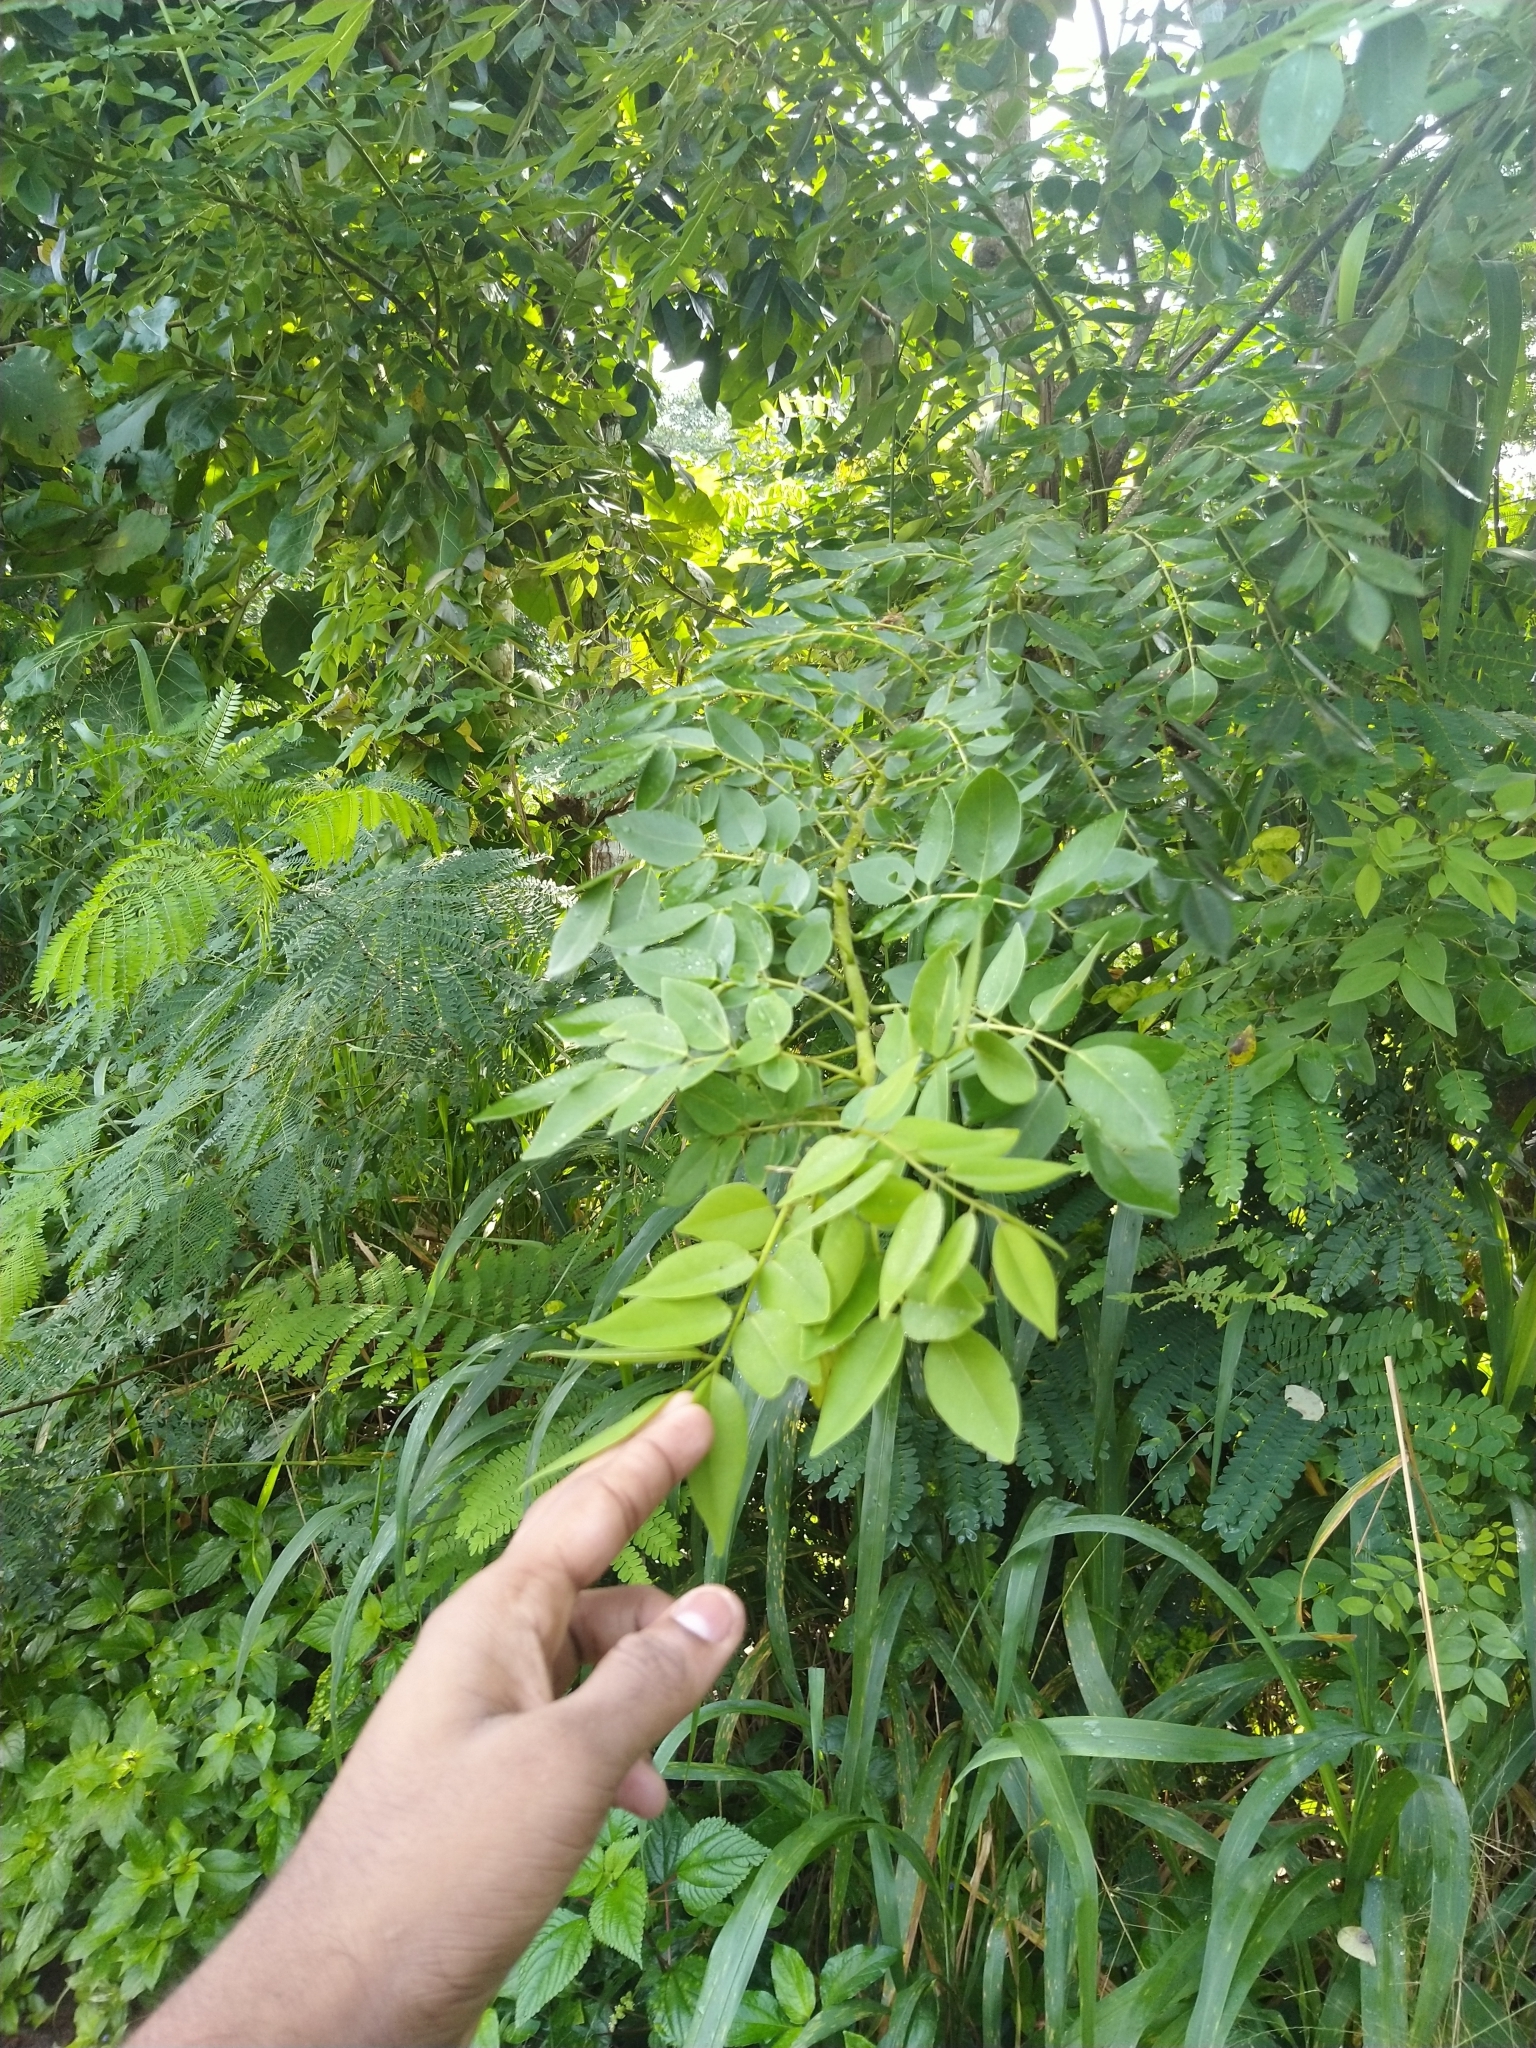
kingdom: Plantae
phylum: Tracheophyta
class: Magnoliopsida
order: Fabales
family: Fabaceae
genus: Gliricidia
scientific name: Gliricidia sepium
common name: Quickstick
